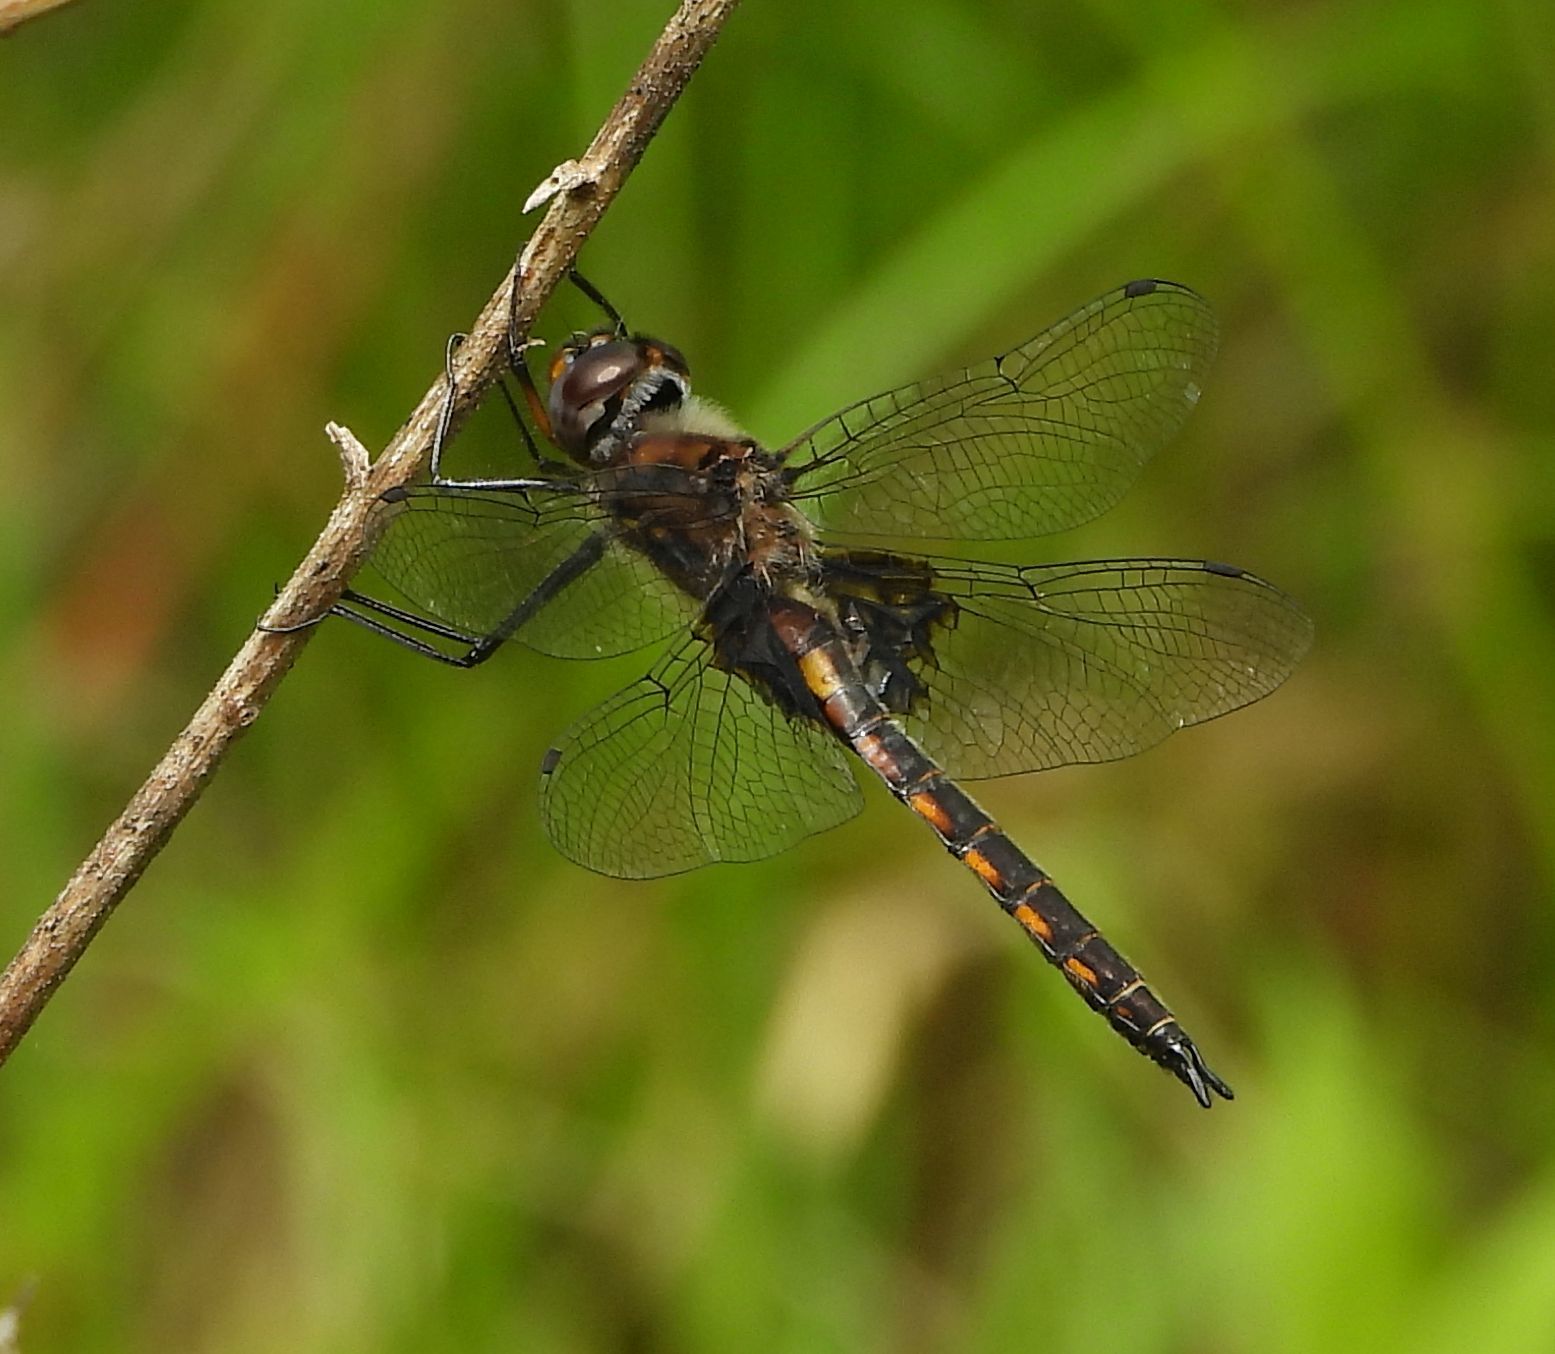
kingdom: Animalia
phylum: Arthropoda
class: Insecta
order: Odonata
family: Corduliidae
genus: Epitheca
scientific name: Epitheca cynosura
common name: Common baskettail
